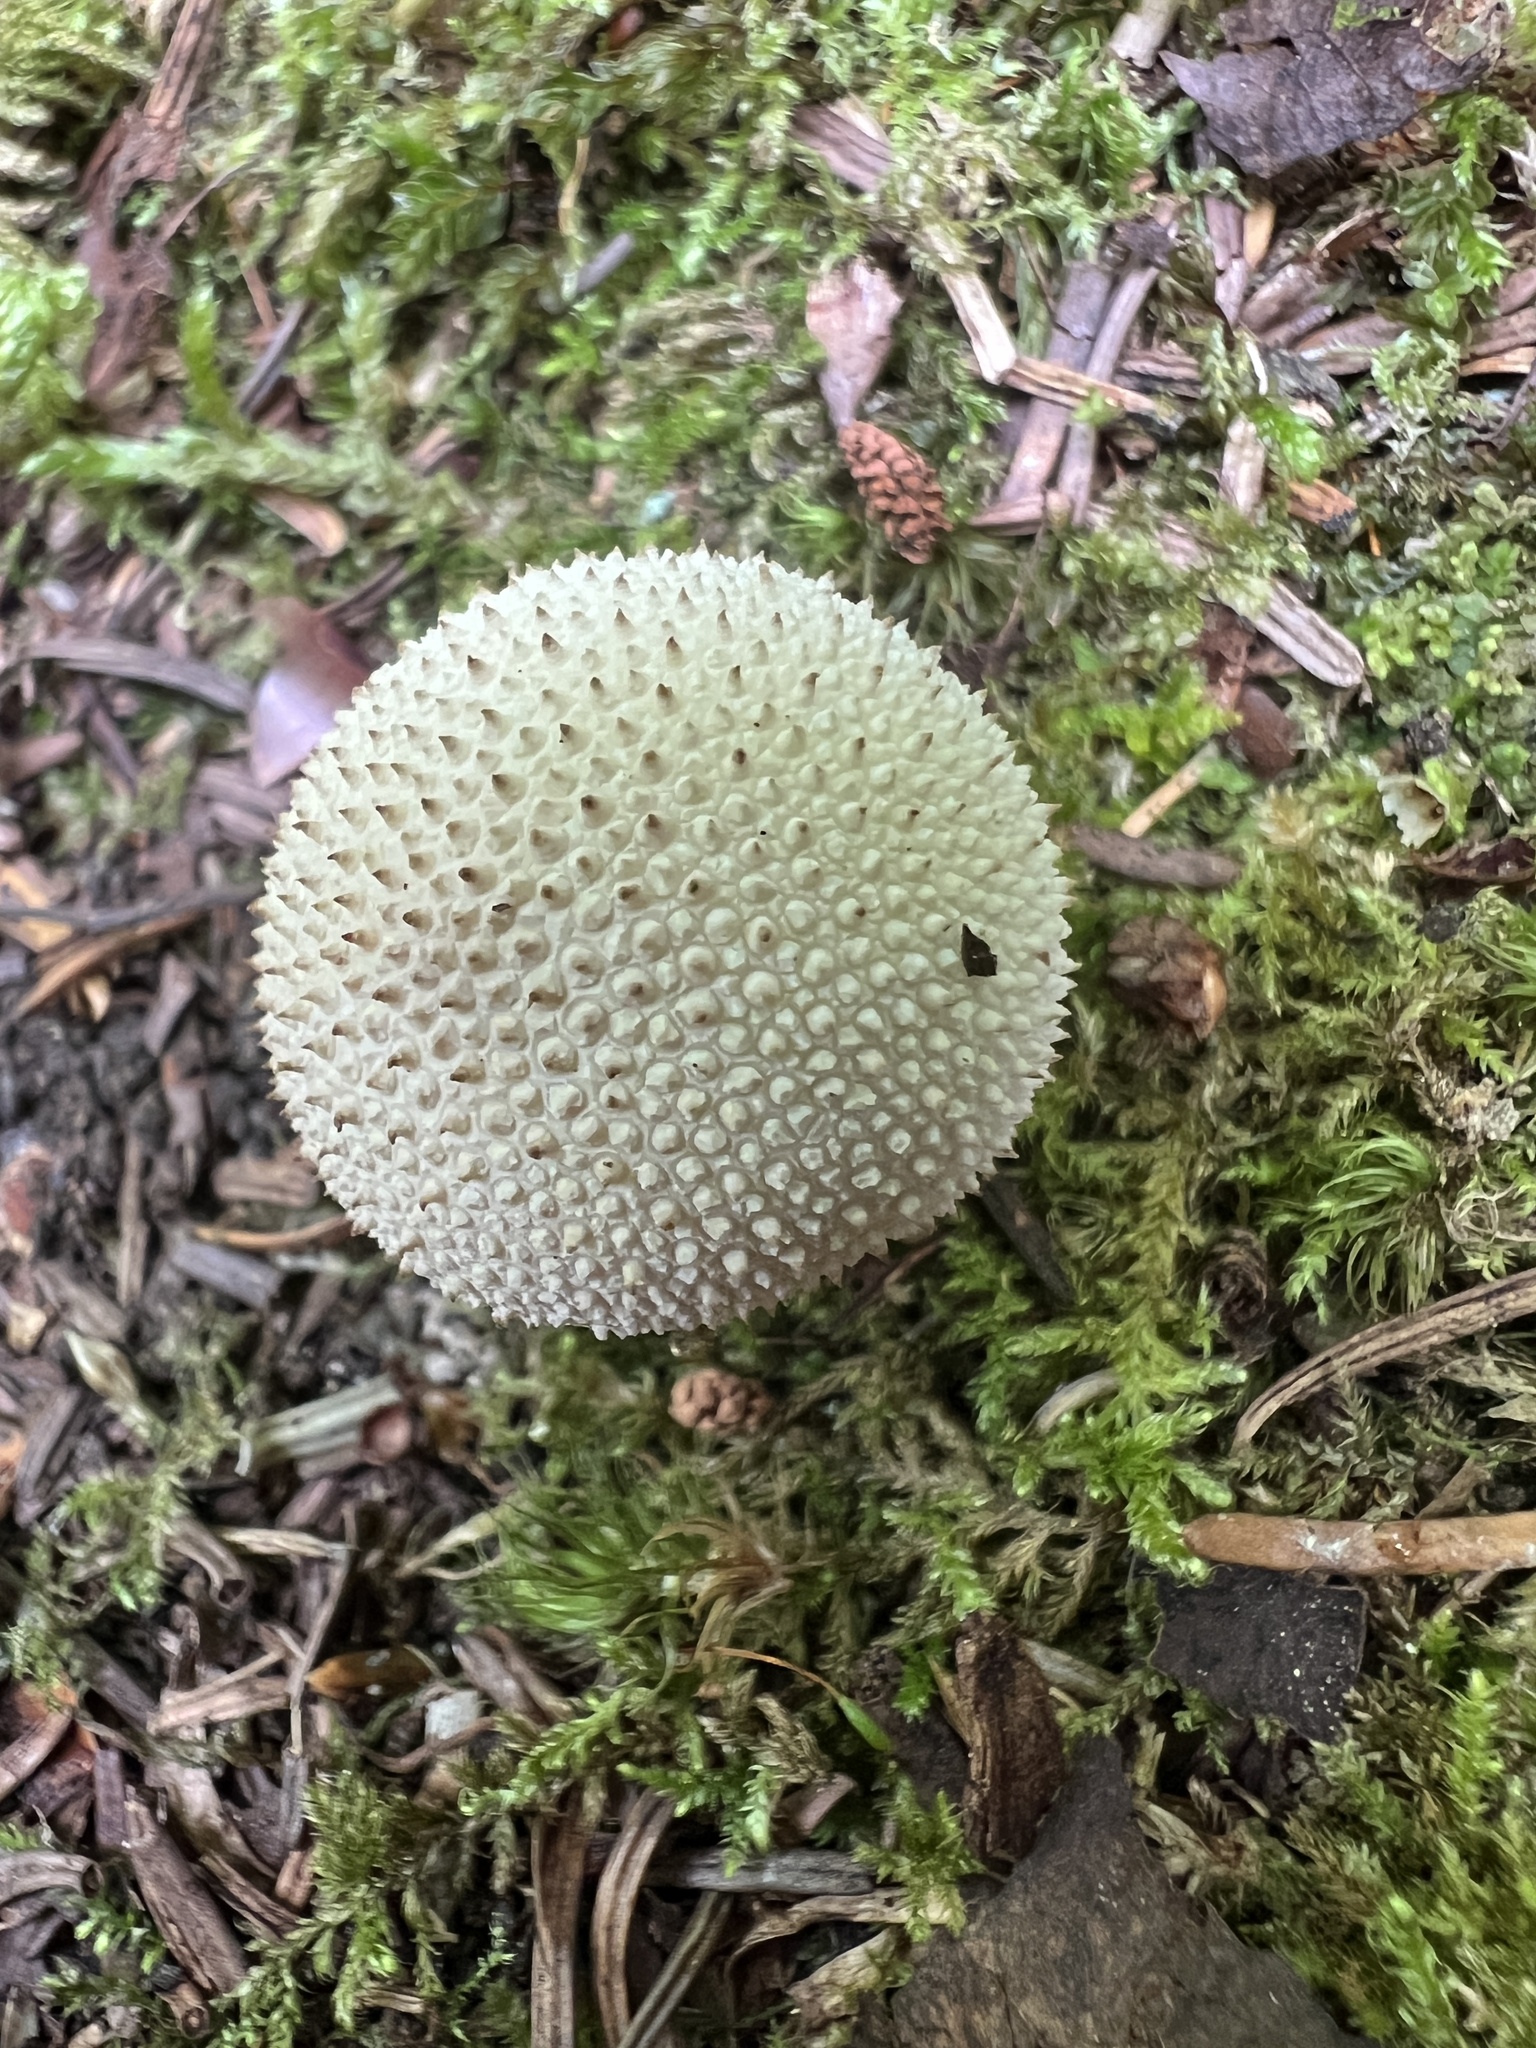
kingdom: Fungi
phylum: Basidiomycota
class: Agaricomycetes
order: Agaricales
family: Lycoperdaceae
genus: Lycoperdon
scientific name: Lycoperdon perlatum
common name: Common puffball
